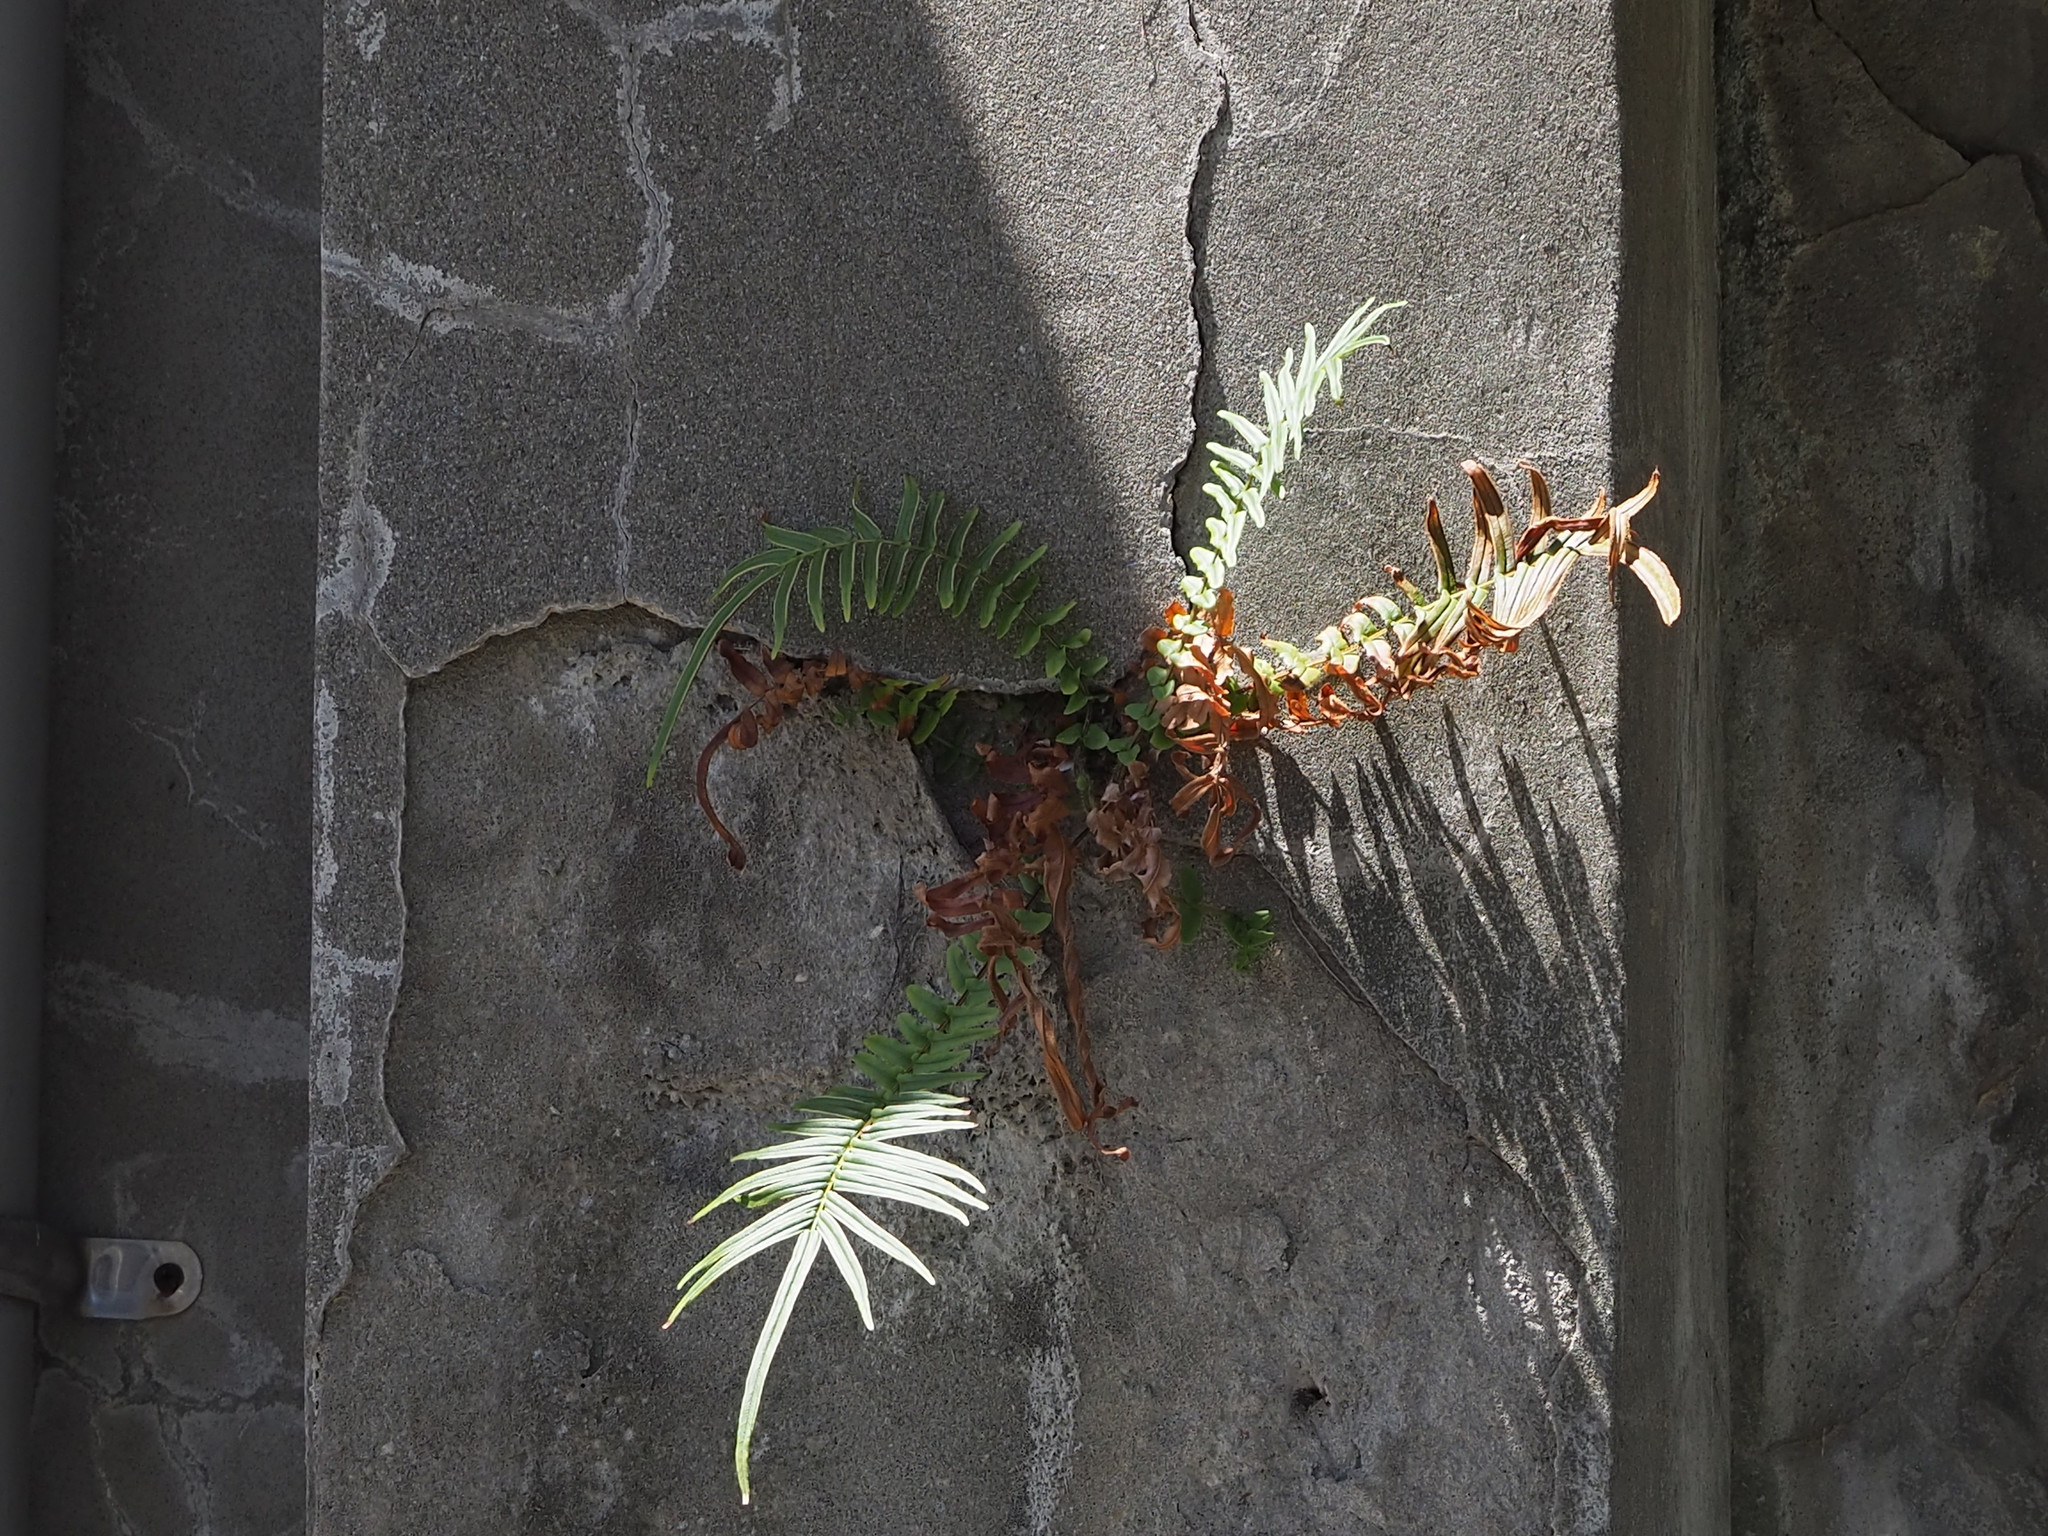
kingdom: Plantae
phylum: Tracheophyta
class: Polypodiopsida
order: Polypodiales
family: Pteridaceae
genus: Pteris
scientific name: Pteris vittata
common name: Ladder brake
